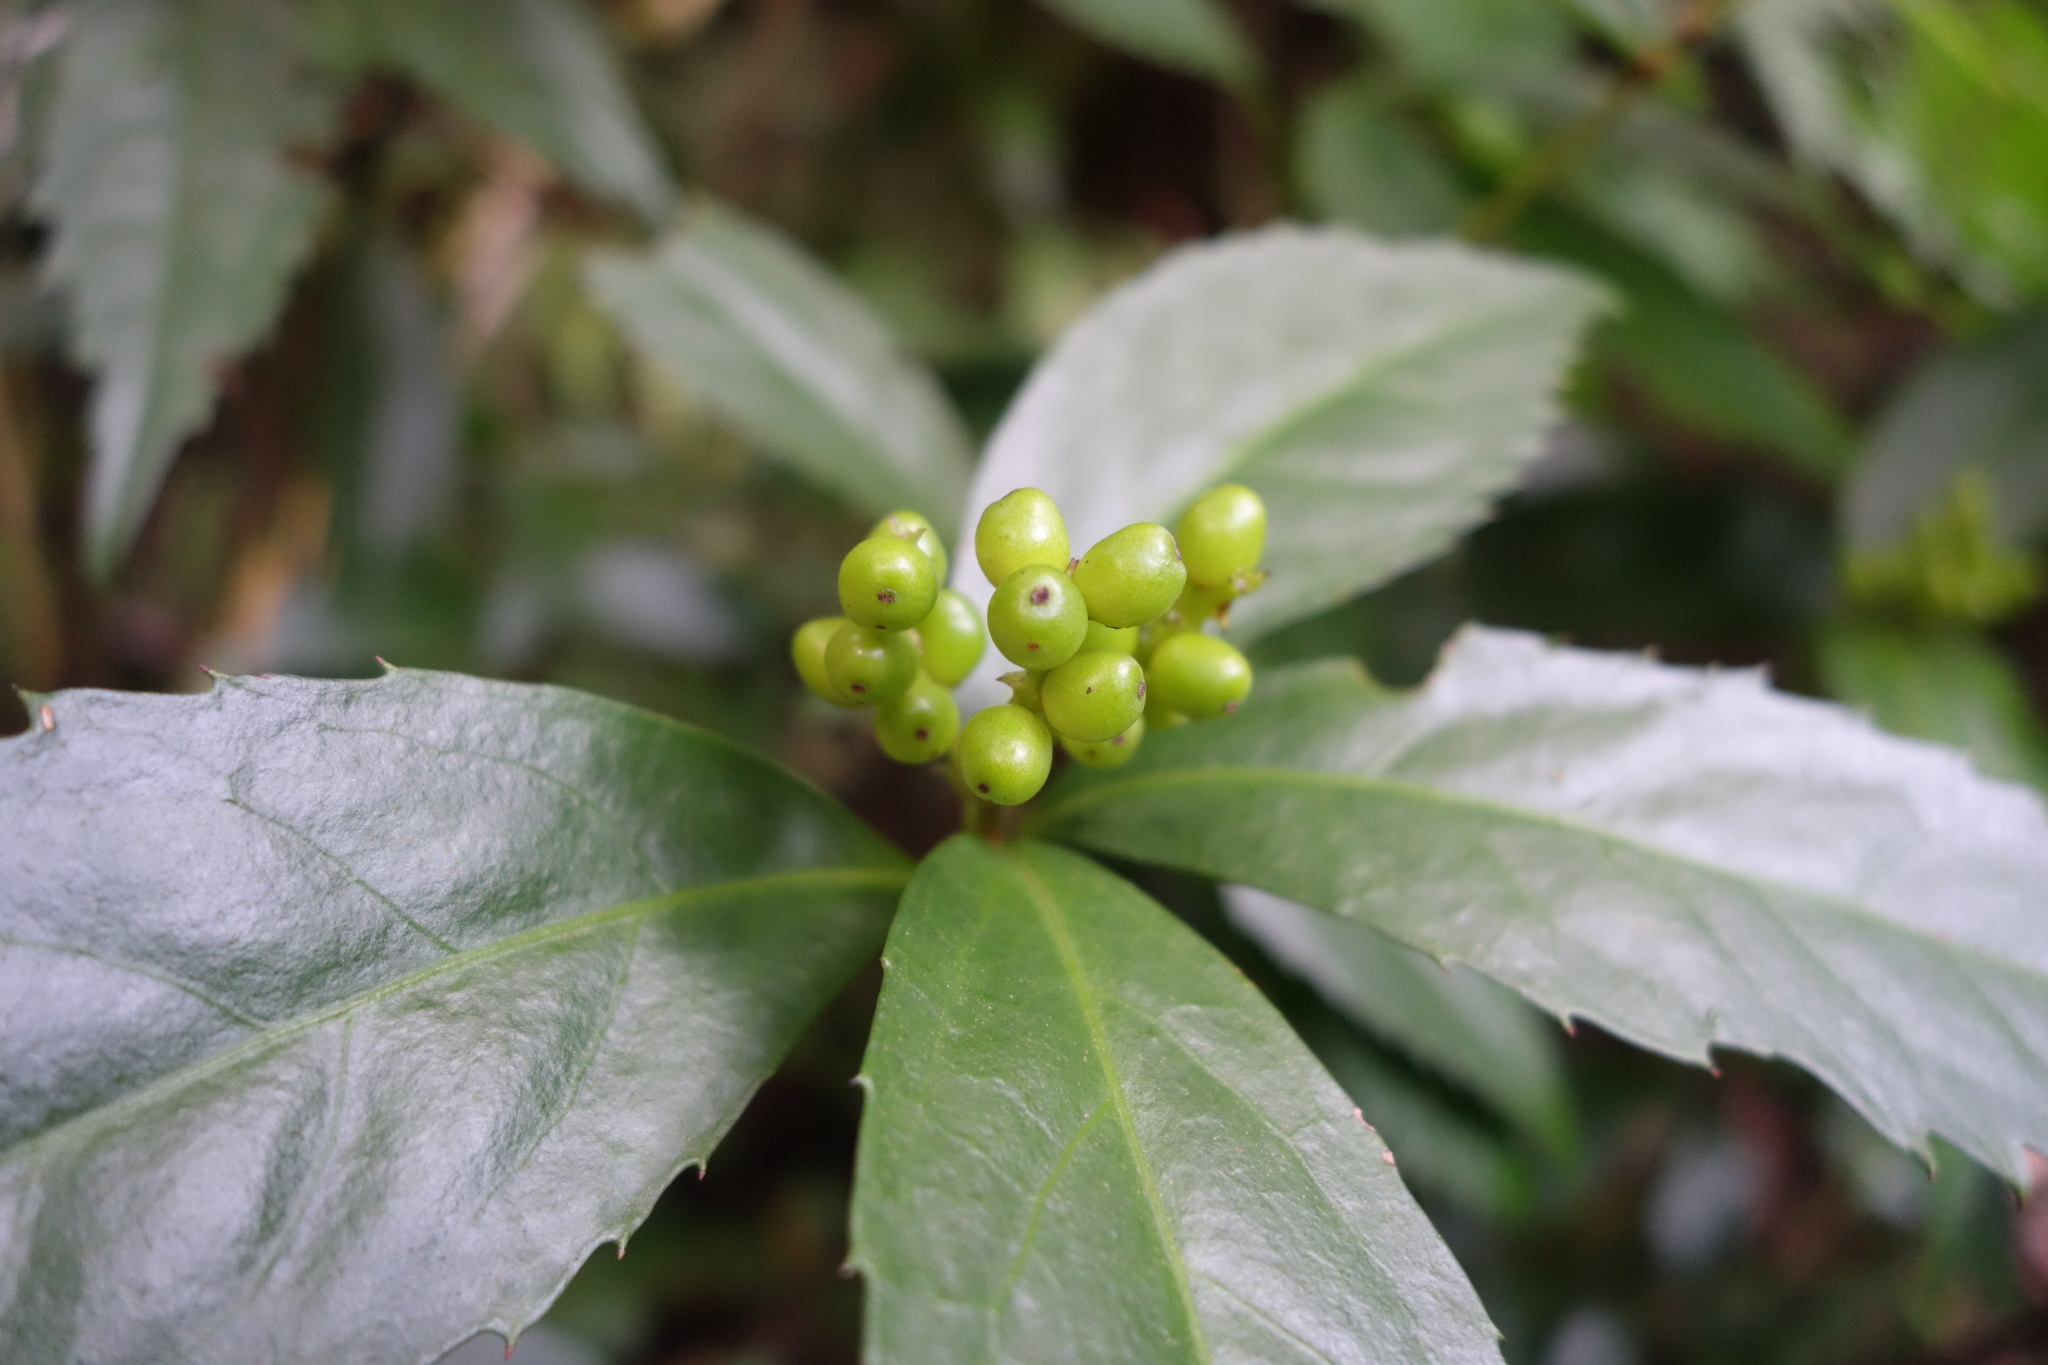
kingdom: Plantae
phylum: Tracheophyta
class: Magnoliopsida
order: Chloranthales
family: Chloranthaceae
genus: Sarcandra
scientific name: Sarcandra glabra
